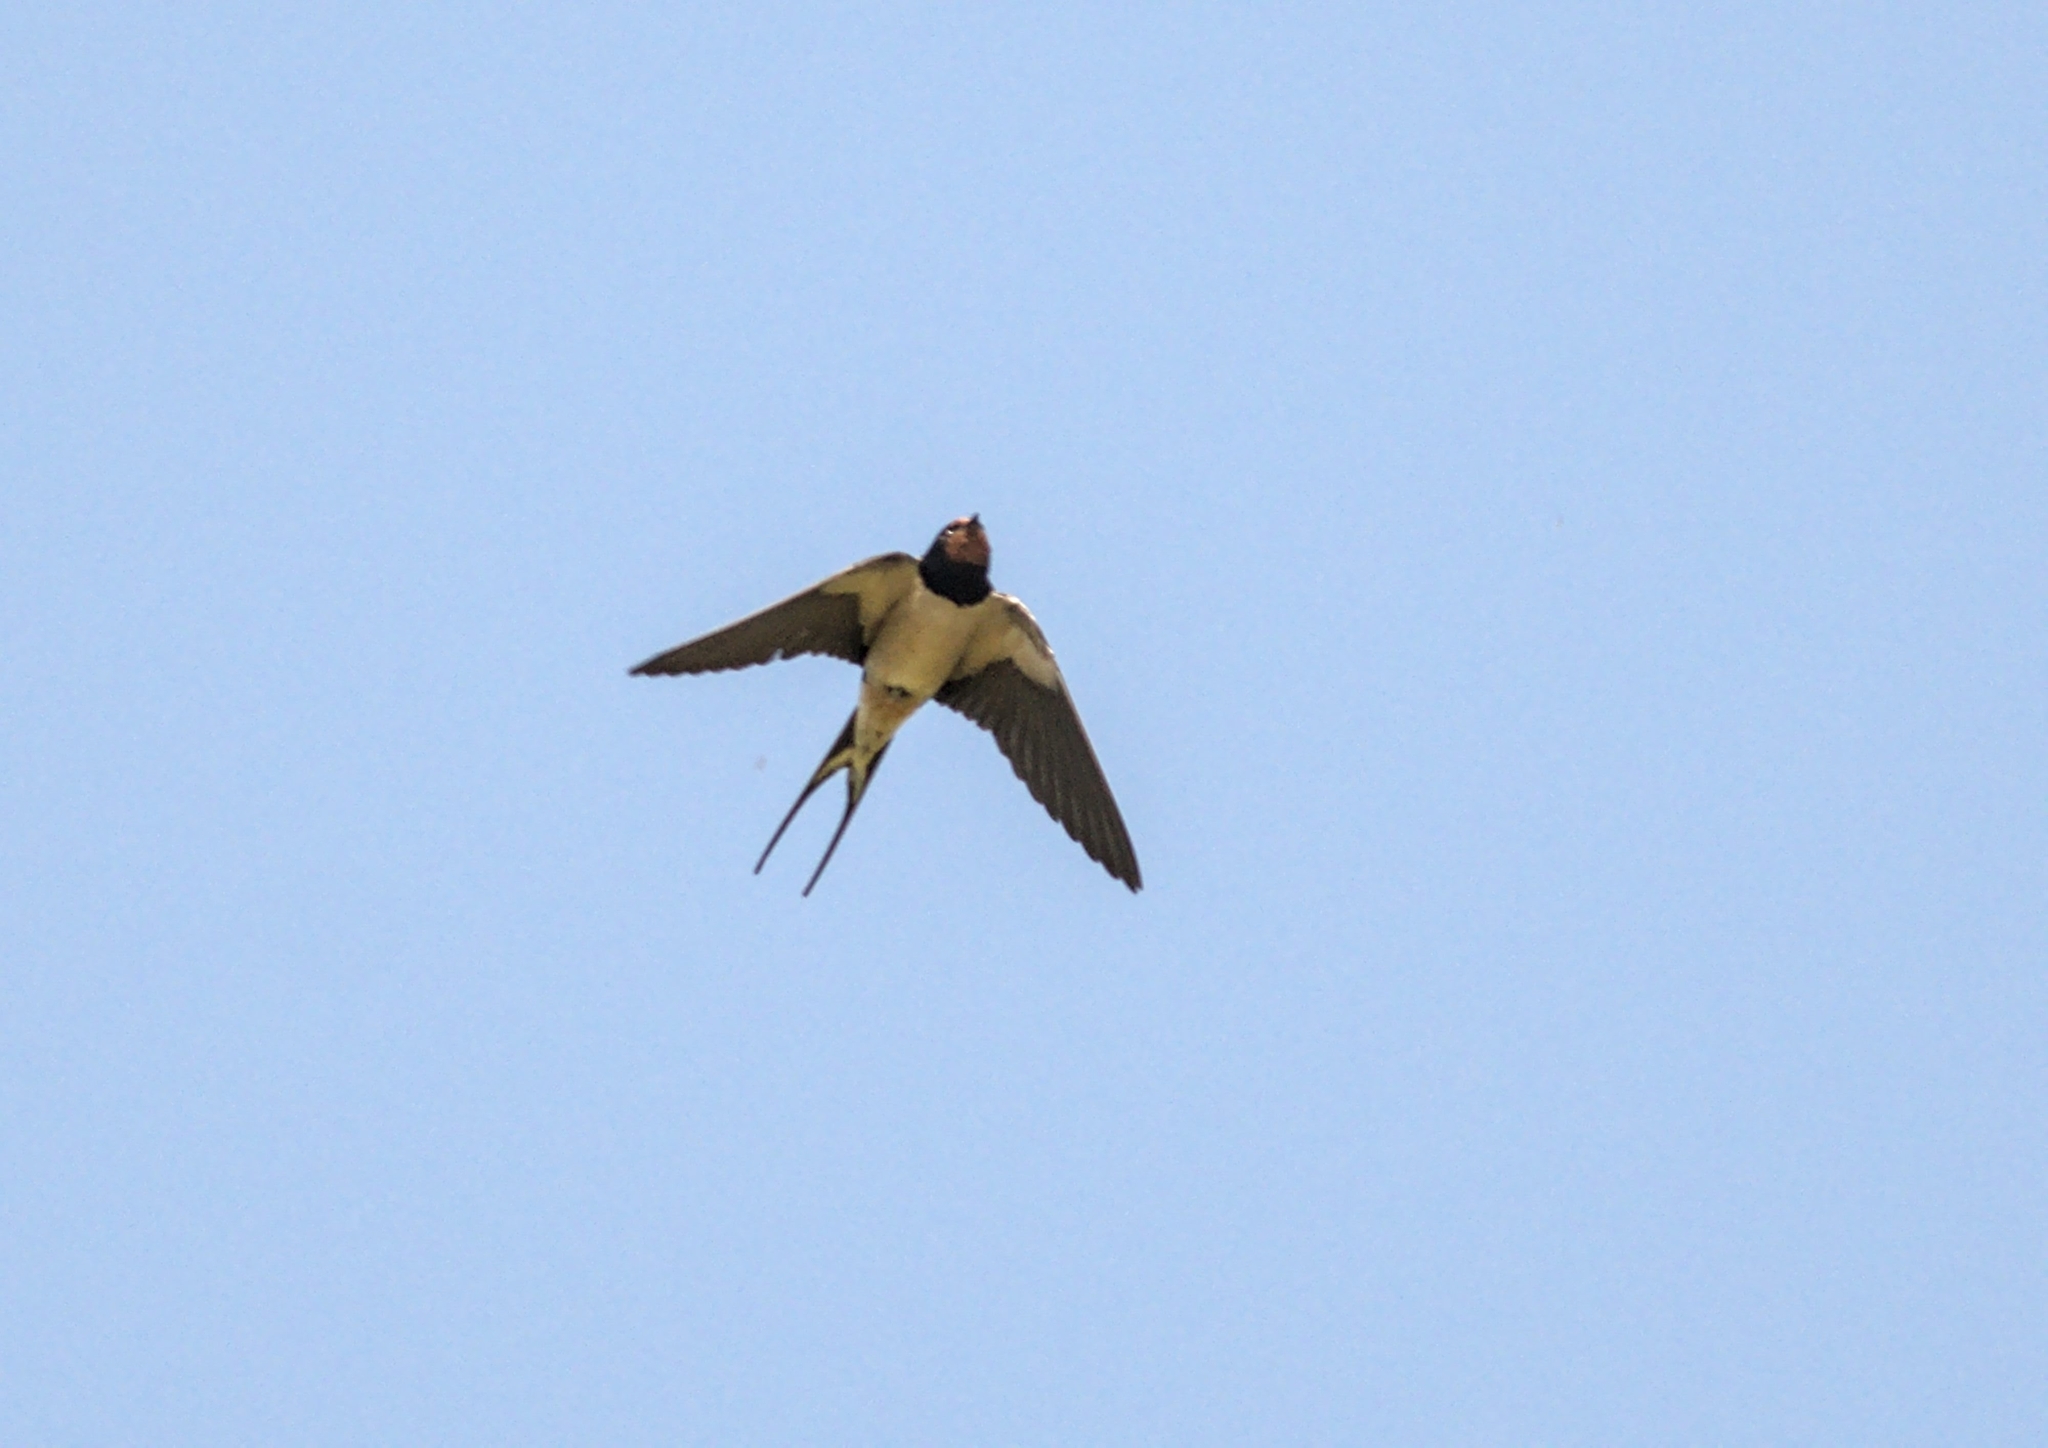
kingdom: Animalia
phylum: Chordata
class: Aves
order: Passeriformes
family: Hirundinidae
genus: Hirundo
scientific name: Hirundo rustica
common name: Barn swallow
